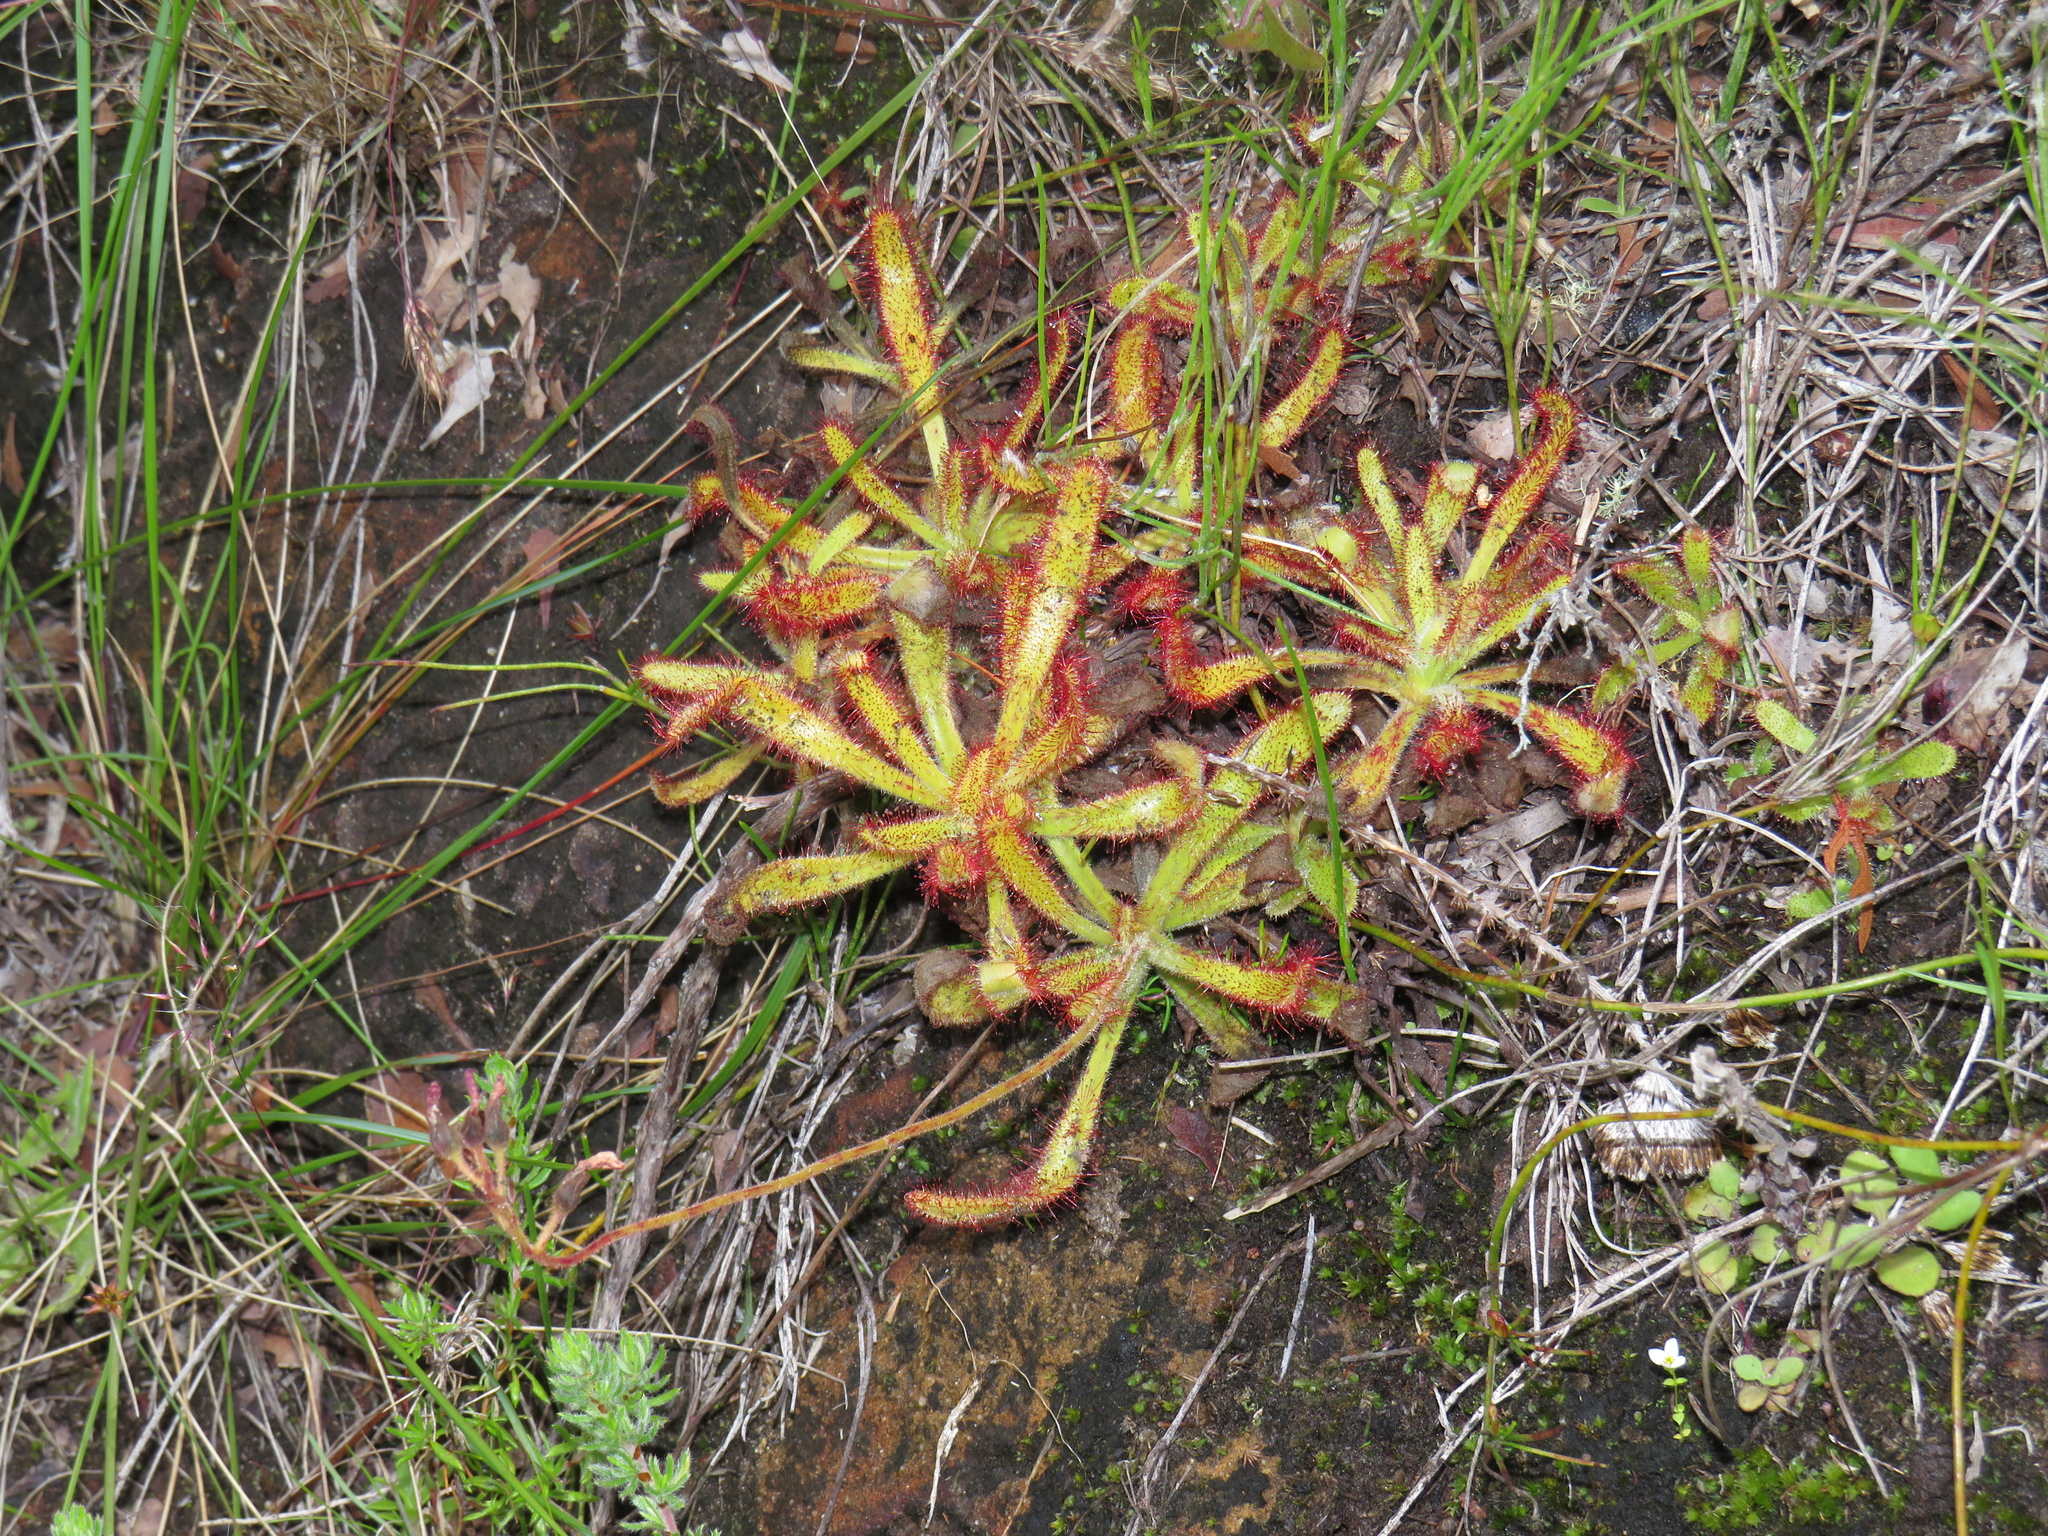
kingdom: Plantae
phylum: Tracheophyta
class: Magnoliopsida
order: Caryophyllales
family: Droseraceae
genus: Drosera
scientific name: Drosera hilaris
